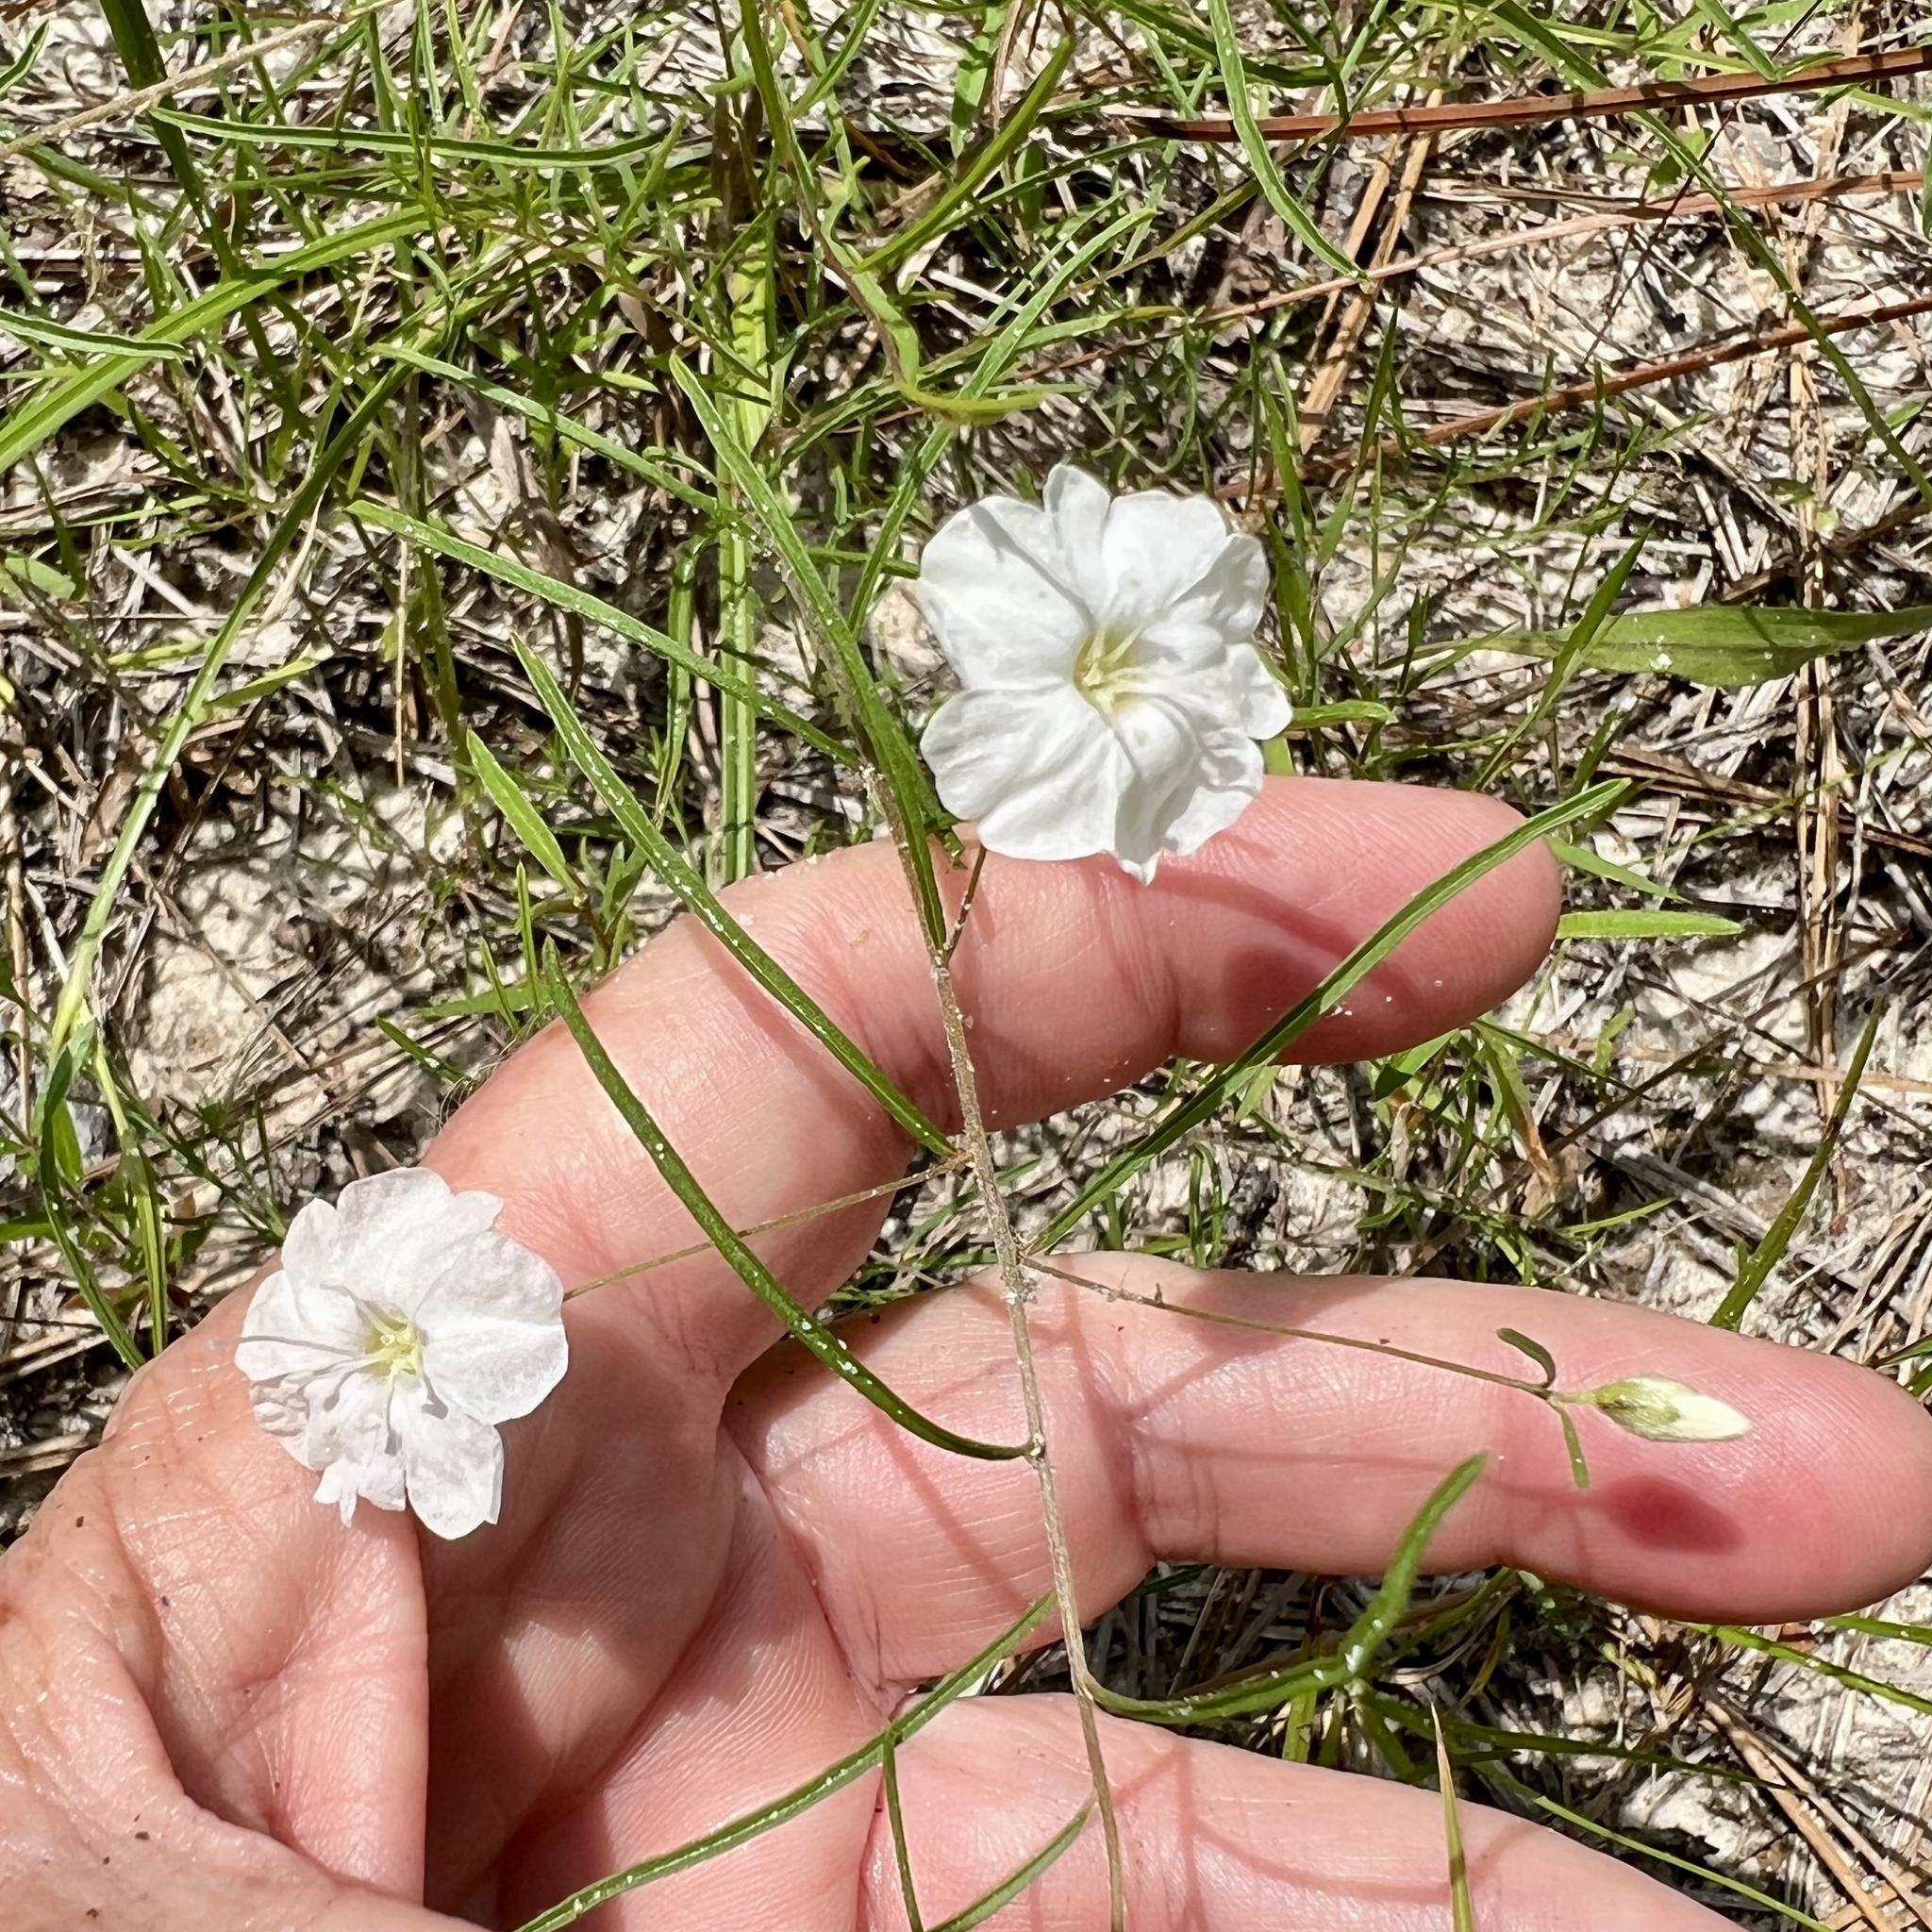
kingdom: Plantae
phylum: Tracheophyta
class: Magnoliopsida
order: Solanales
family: Convolvulaceae
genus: Stylisma
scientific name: Stylisma pickeringii
